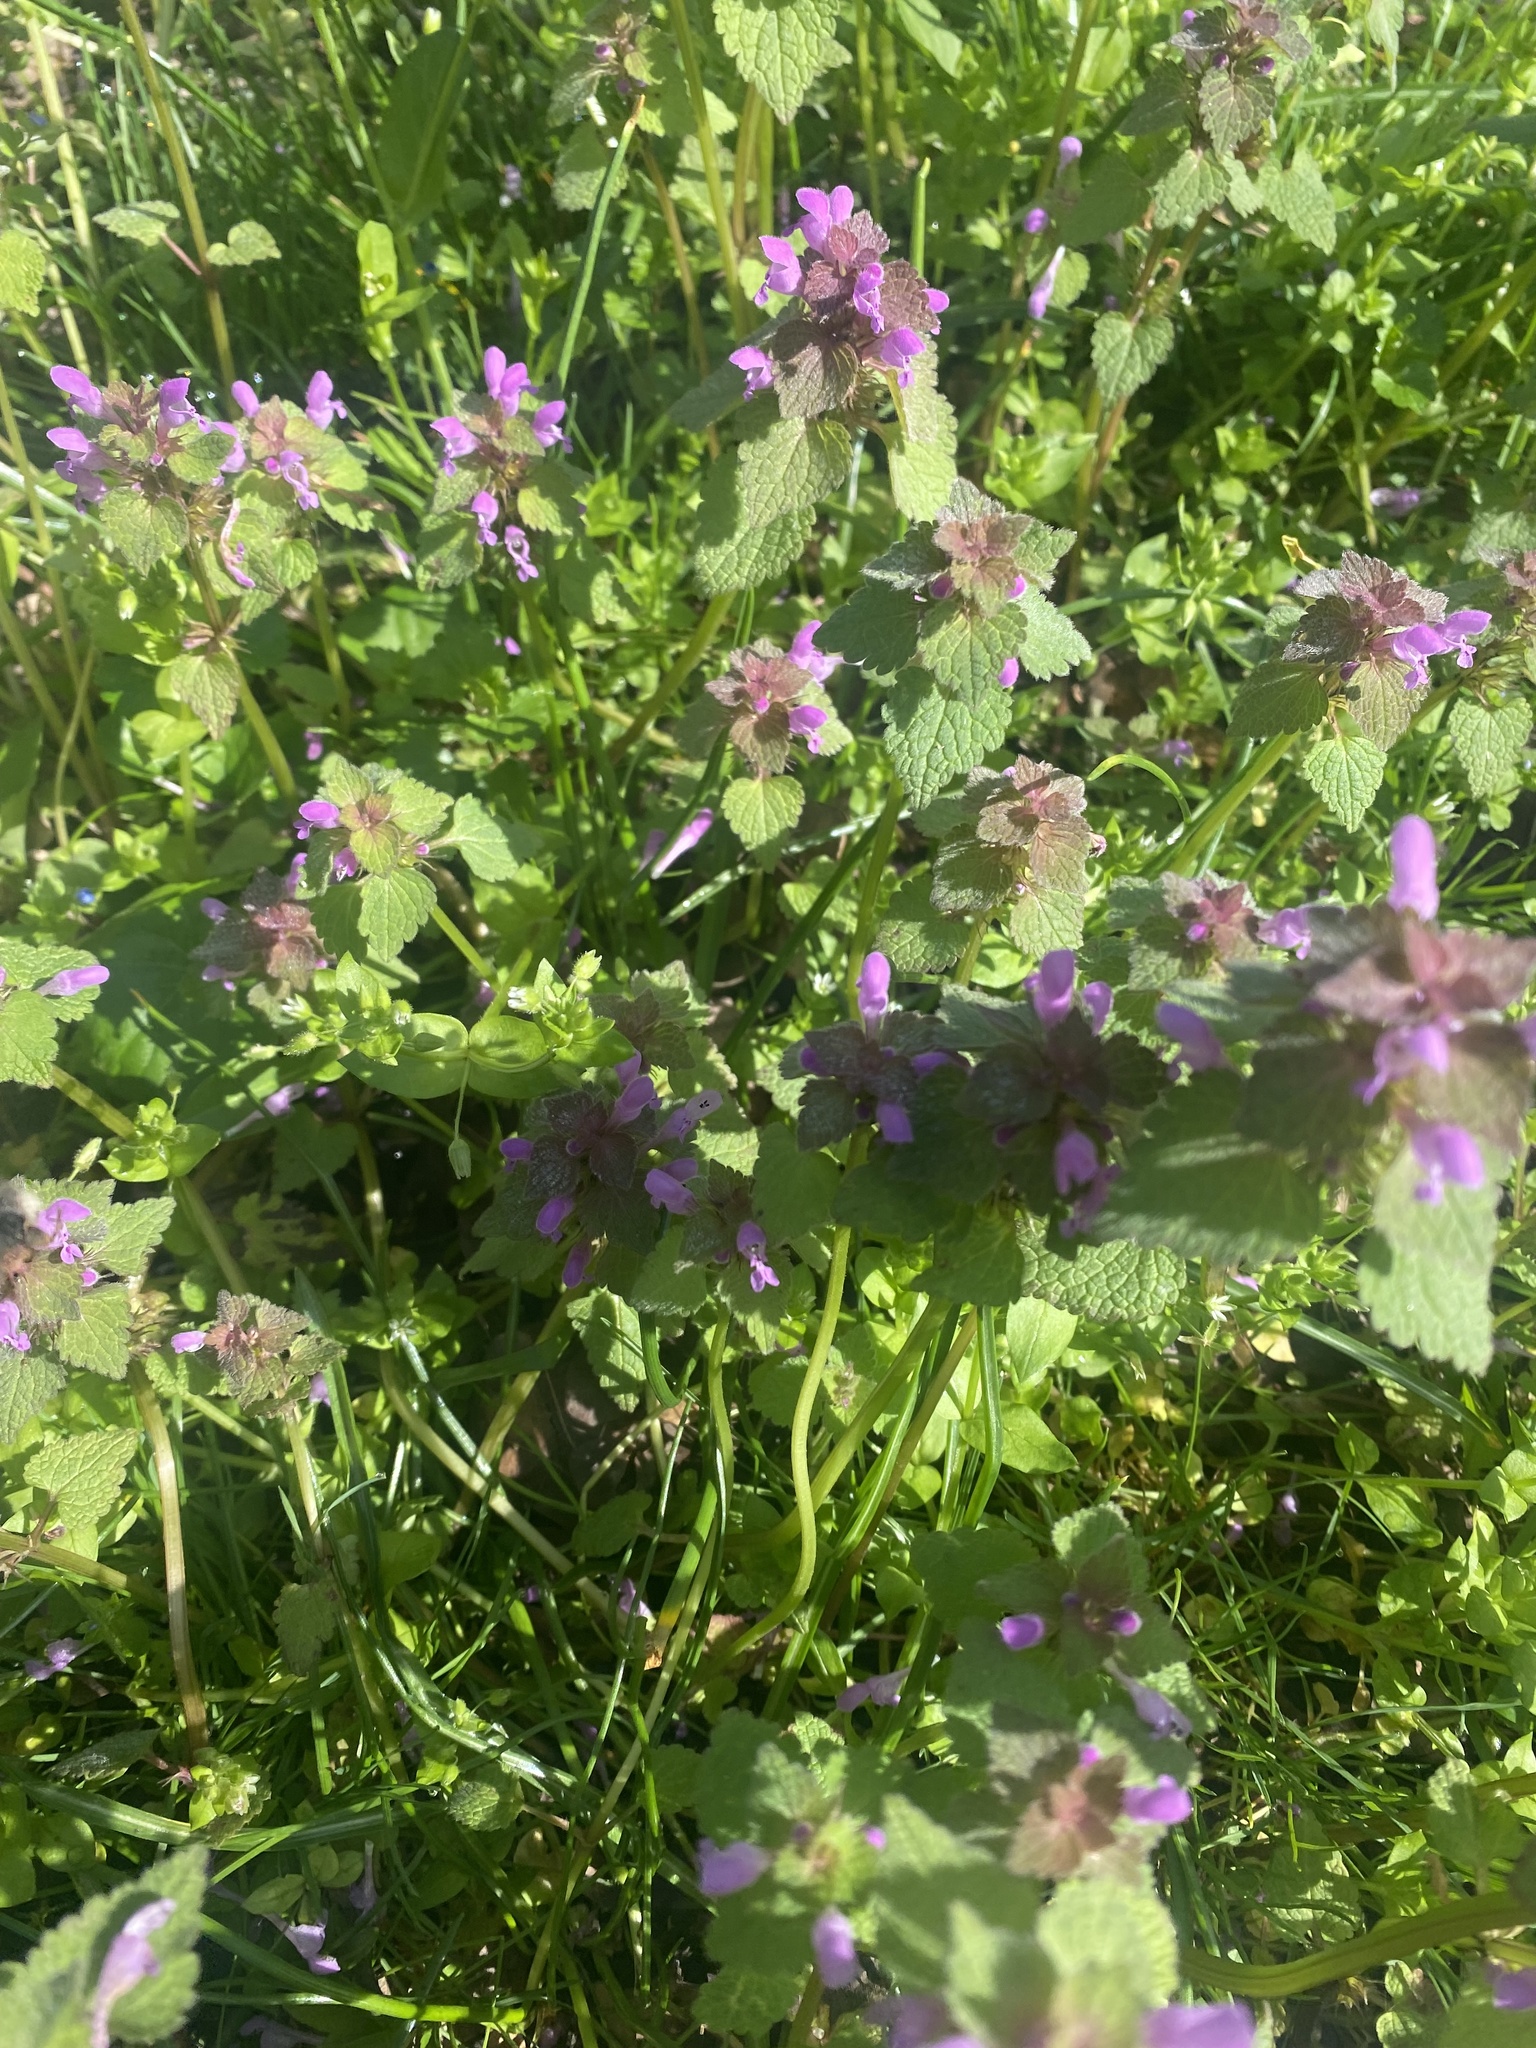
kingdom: Animalia
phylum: Arthropoda
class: Insecta
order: Hymenoptera
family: Apidae
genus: Bombus
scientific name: Bombus
